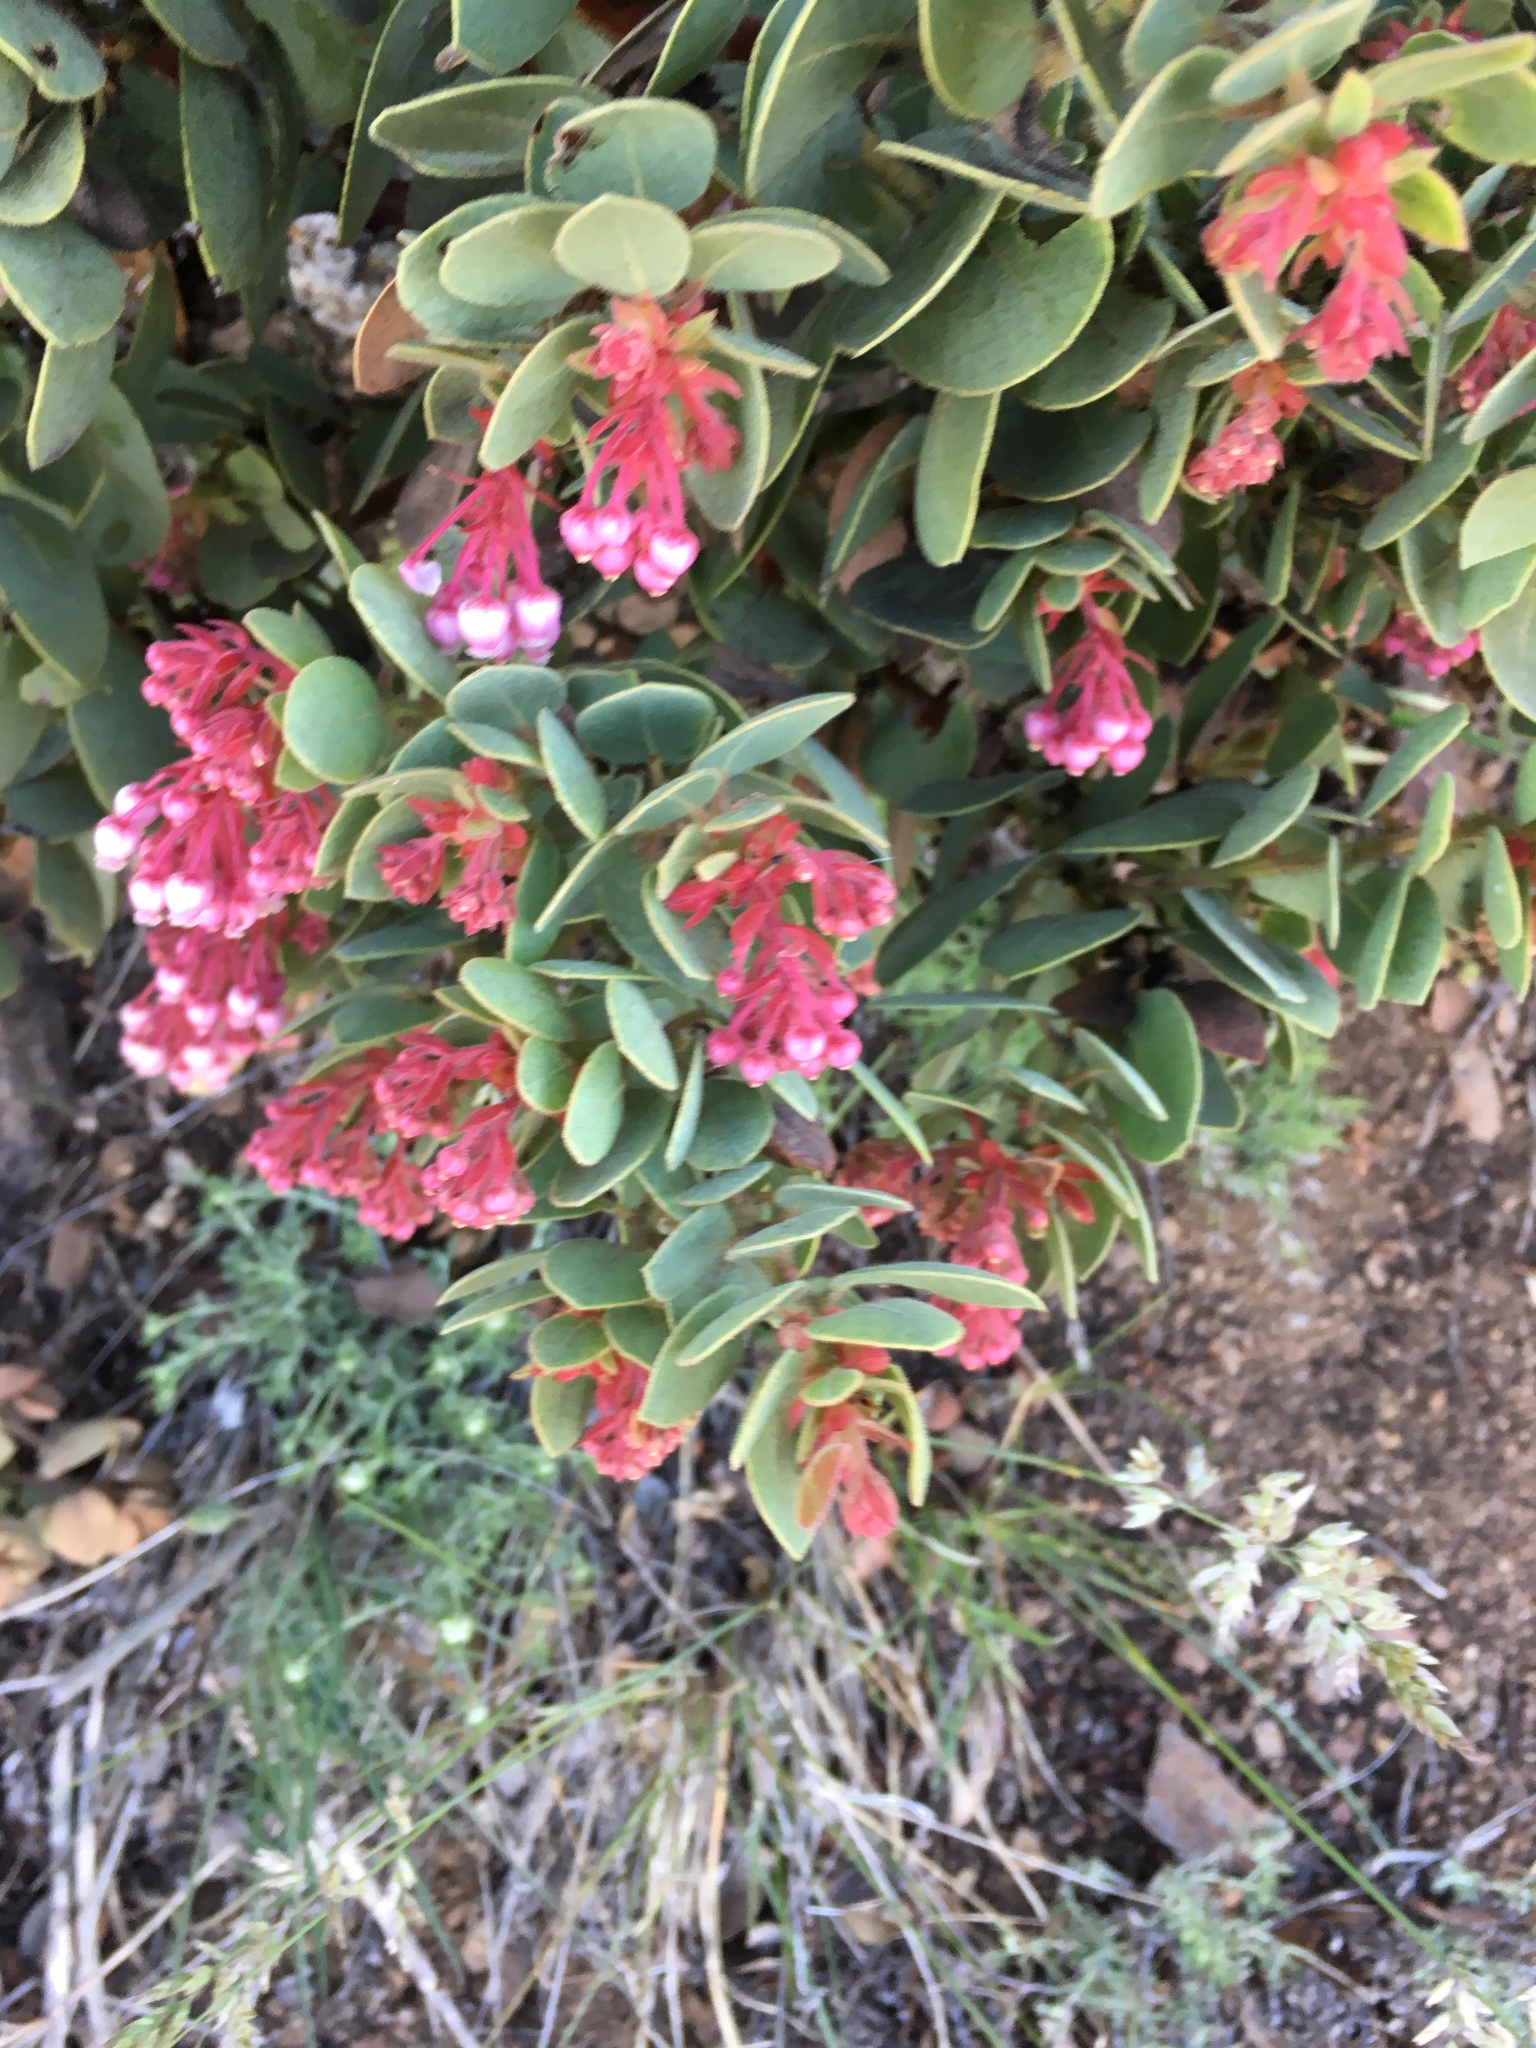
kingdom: Plantae
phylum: Tracheophyta
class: Magnoliopsida
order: Ericales
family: Ericaceae
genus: Arctostaphylos
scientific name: Arctostaphylos pringlei
